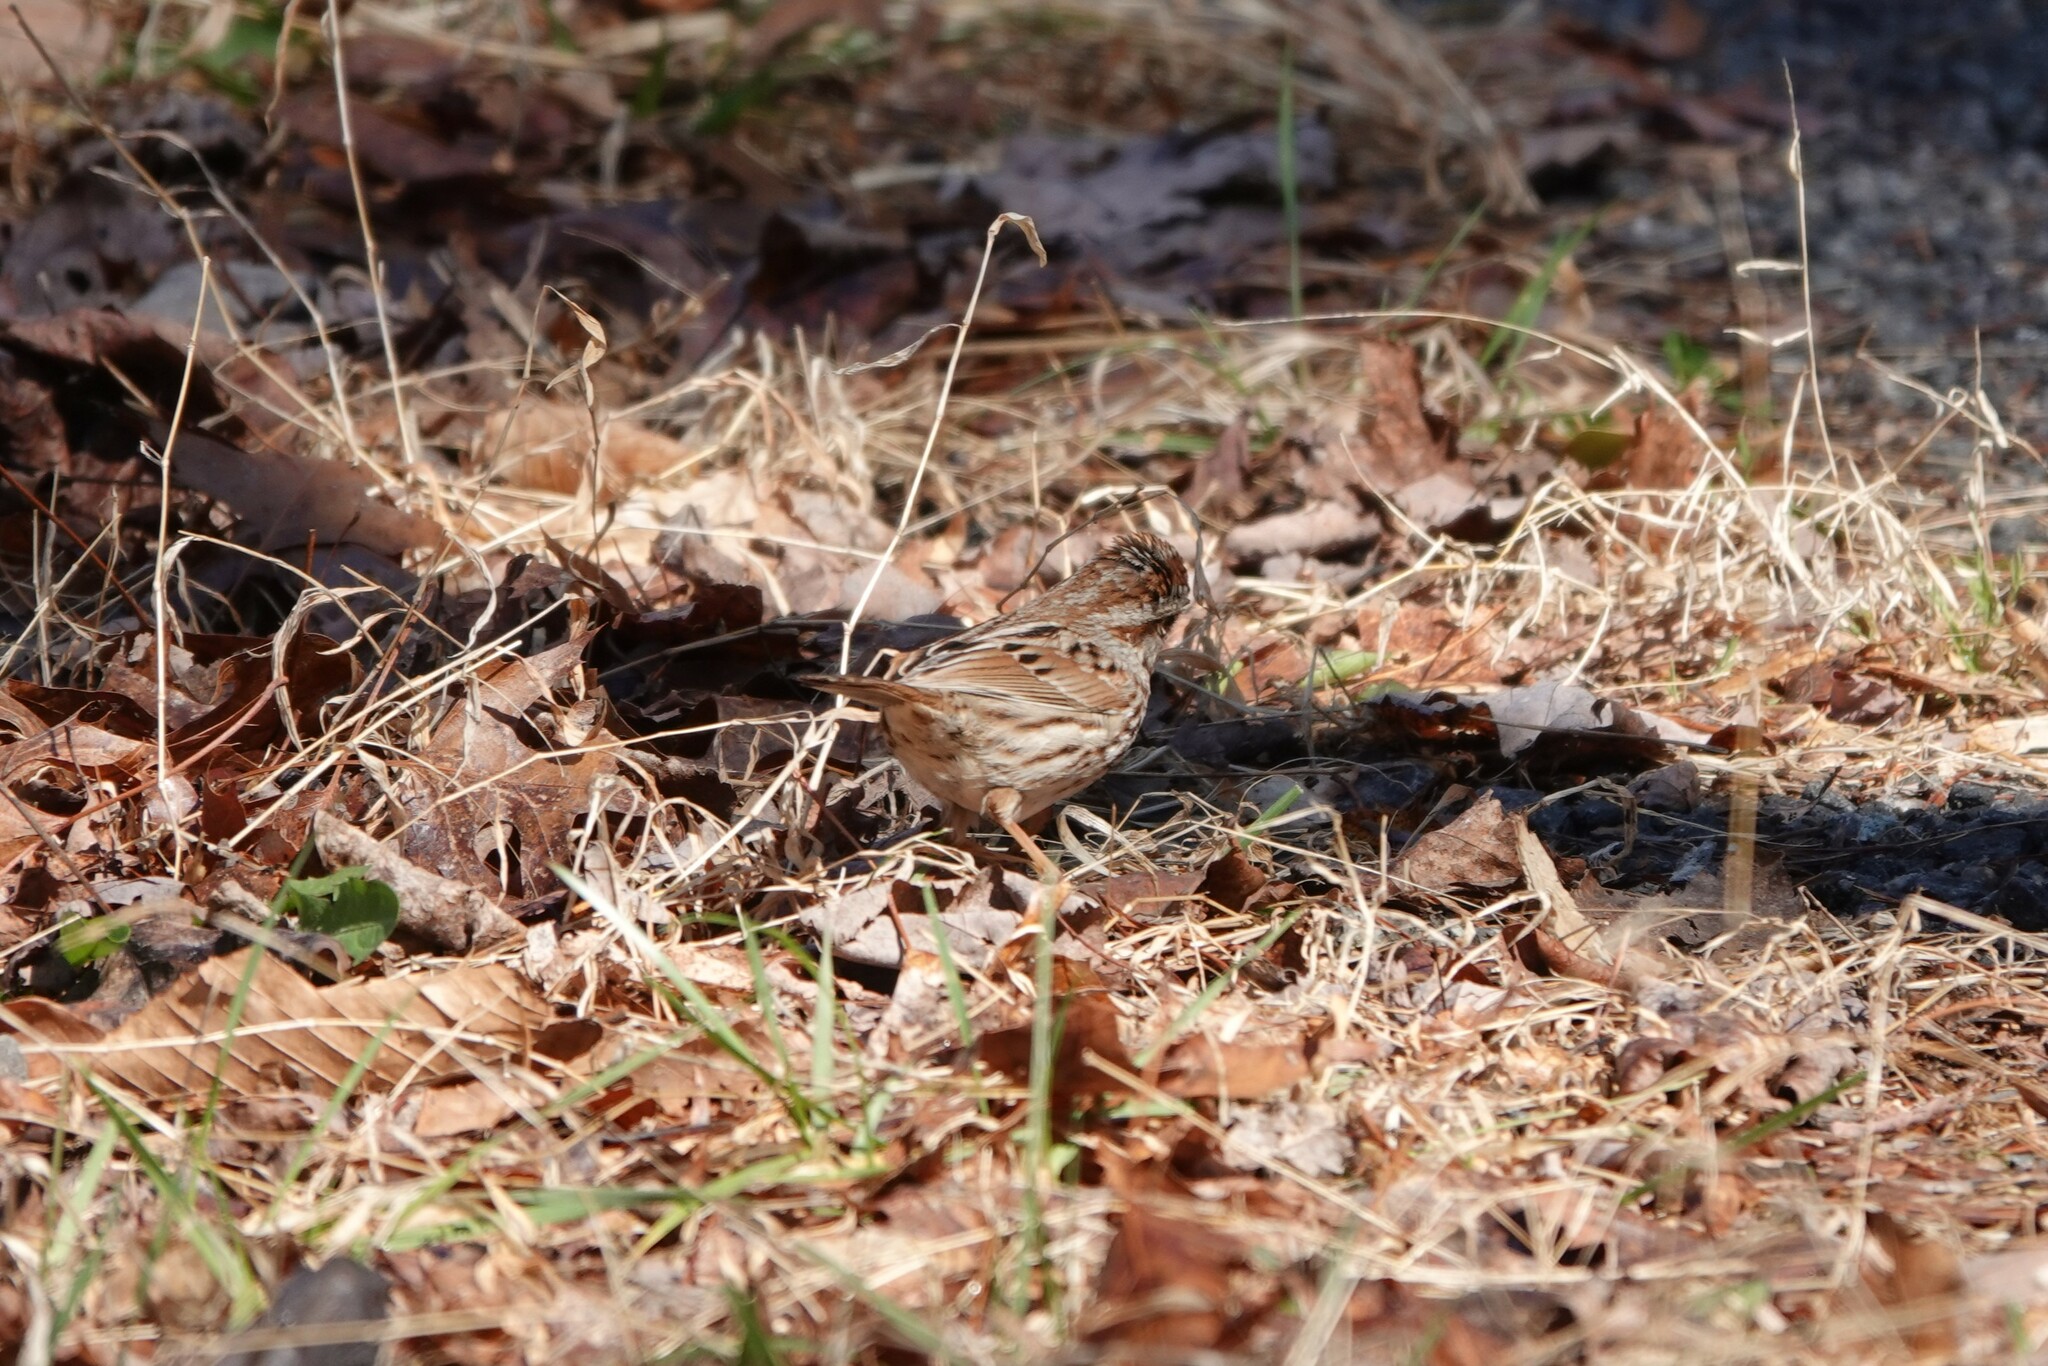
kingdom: Animalia
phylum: Chordata
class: Aves
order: Passeriformes
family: Passerellidae
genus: Melospiza
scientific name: Melospiza melodia
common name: Song sparrow
